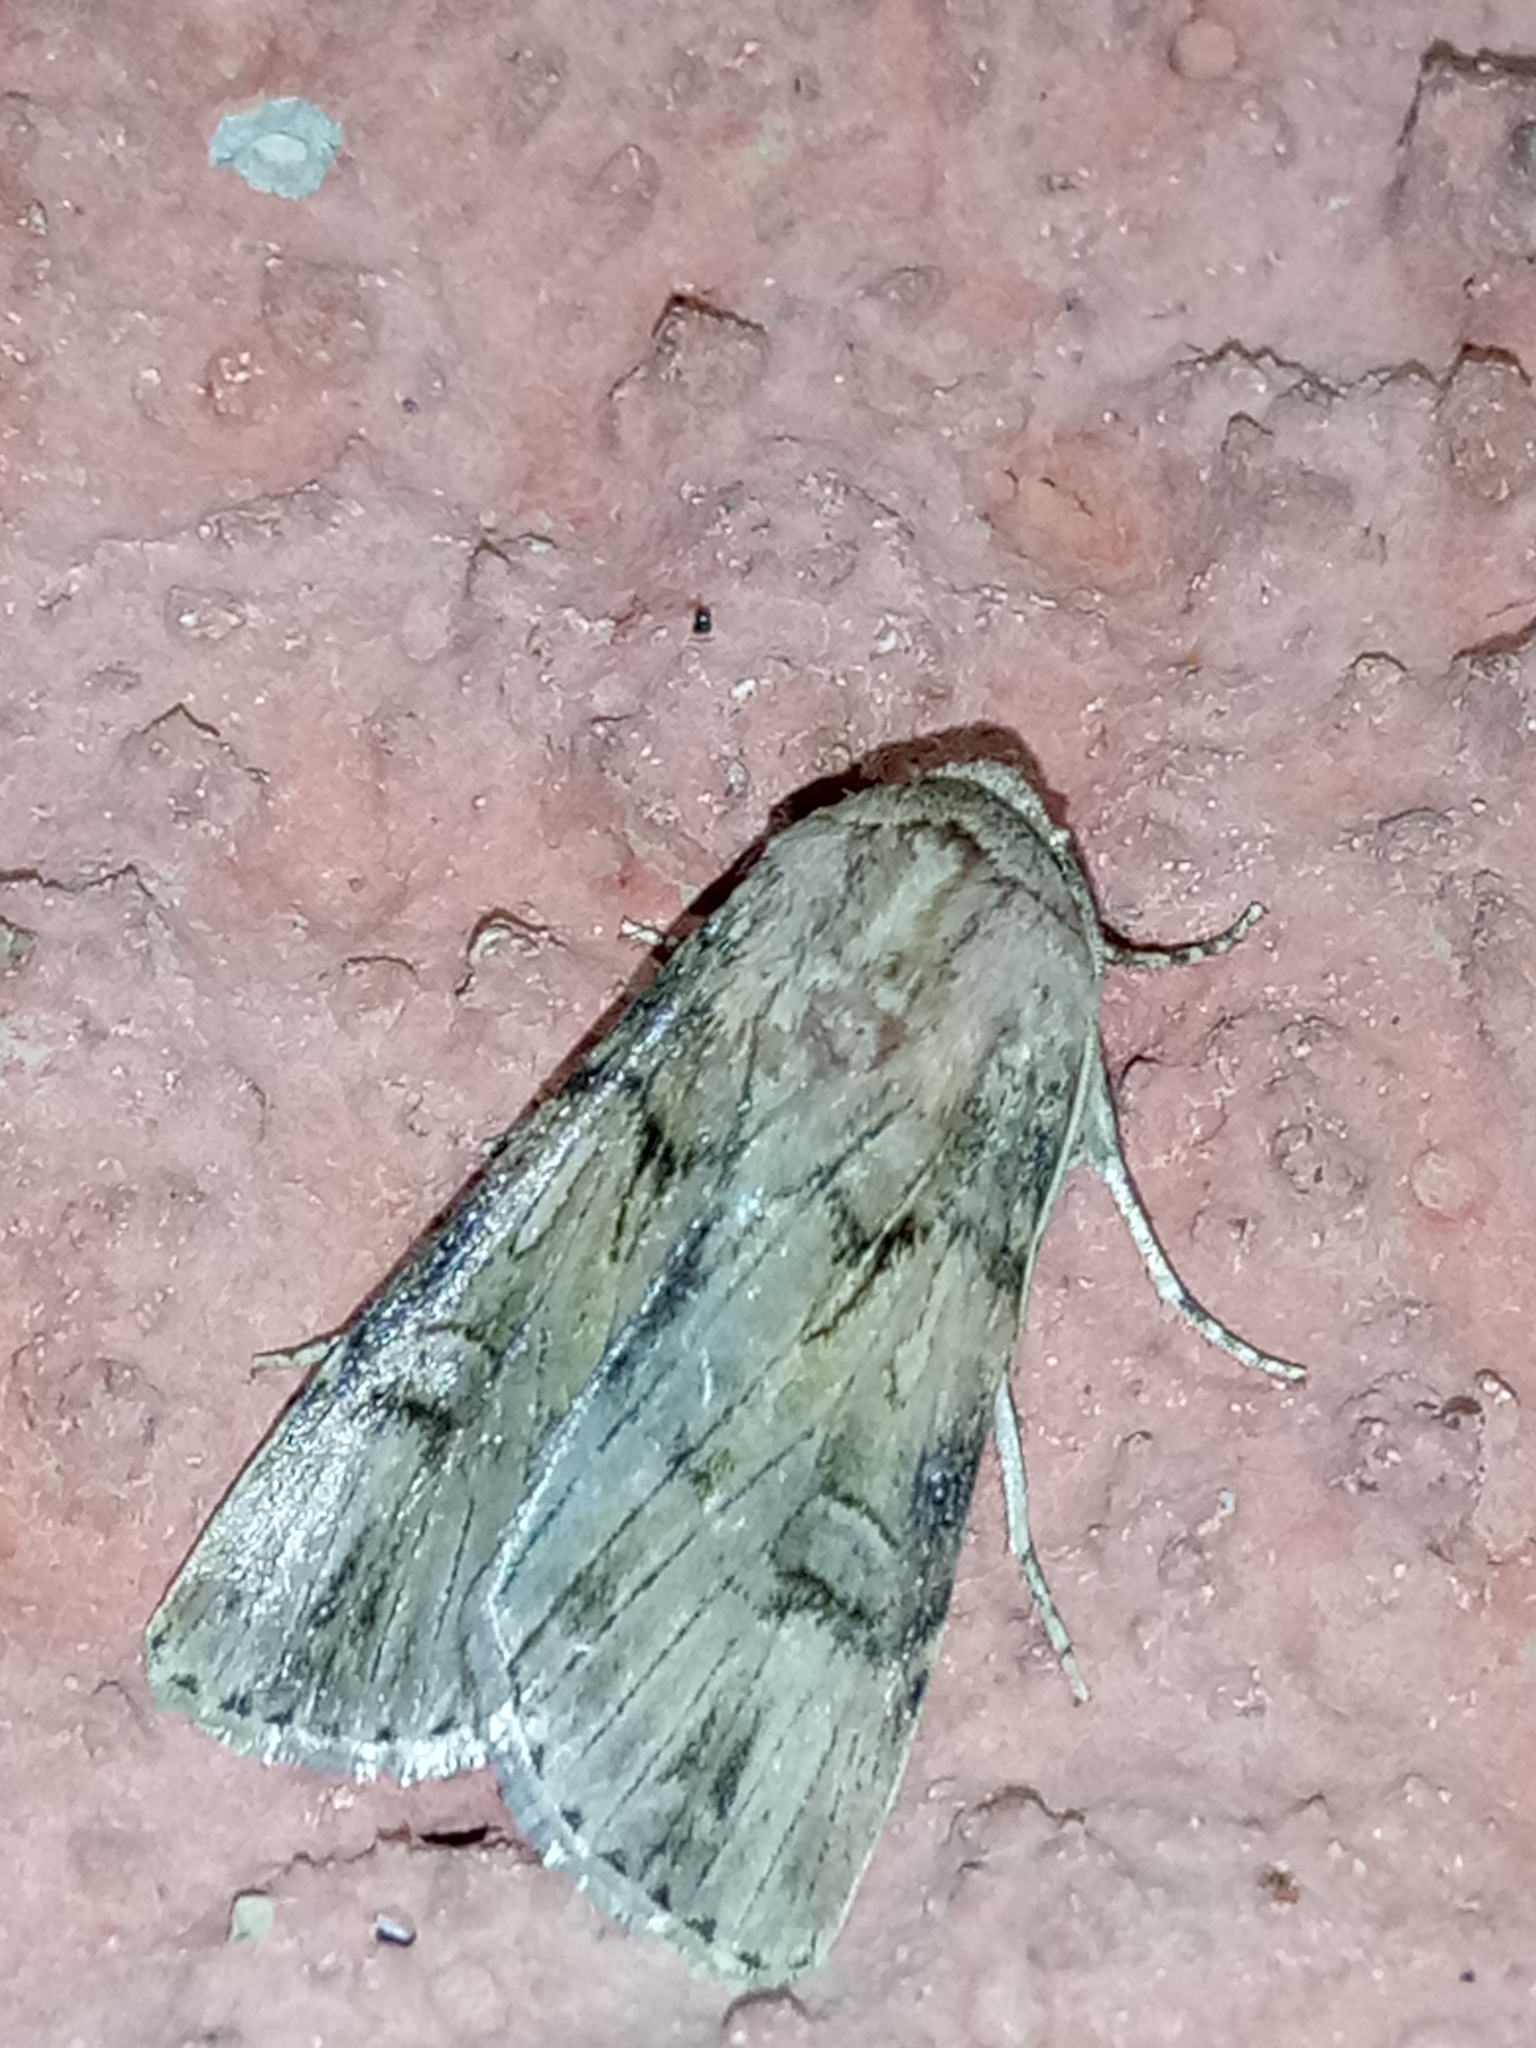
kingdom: Animalia
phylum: Arthropoda
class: Insecta
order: Lepidoptera
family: Noctuidae
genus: Agrotis
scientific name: Agrotis herzogi
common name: Spalding's dart
